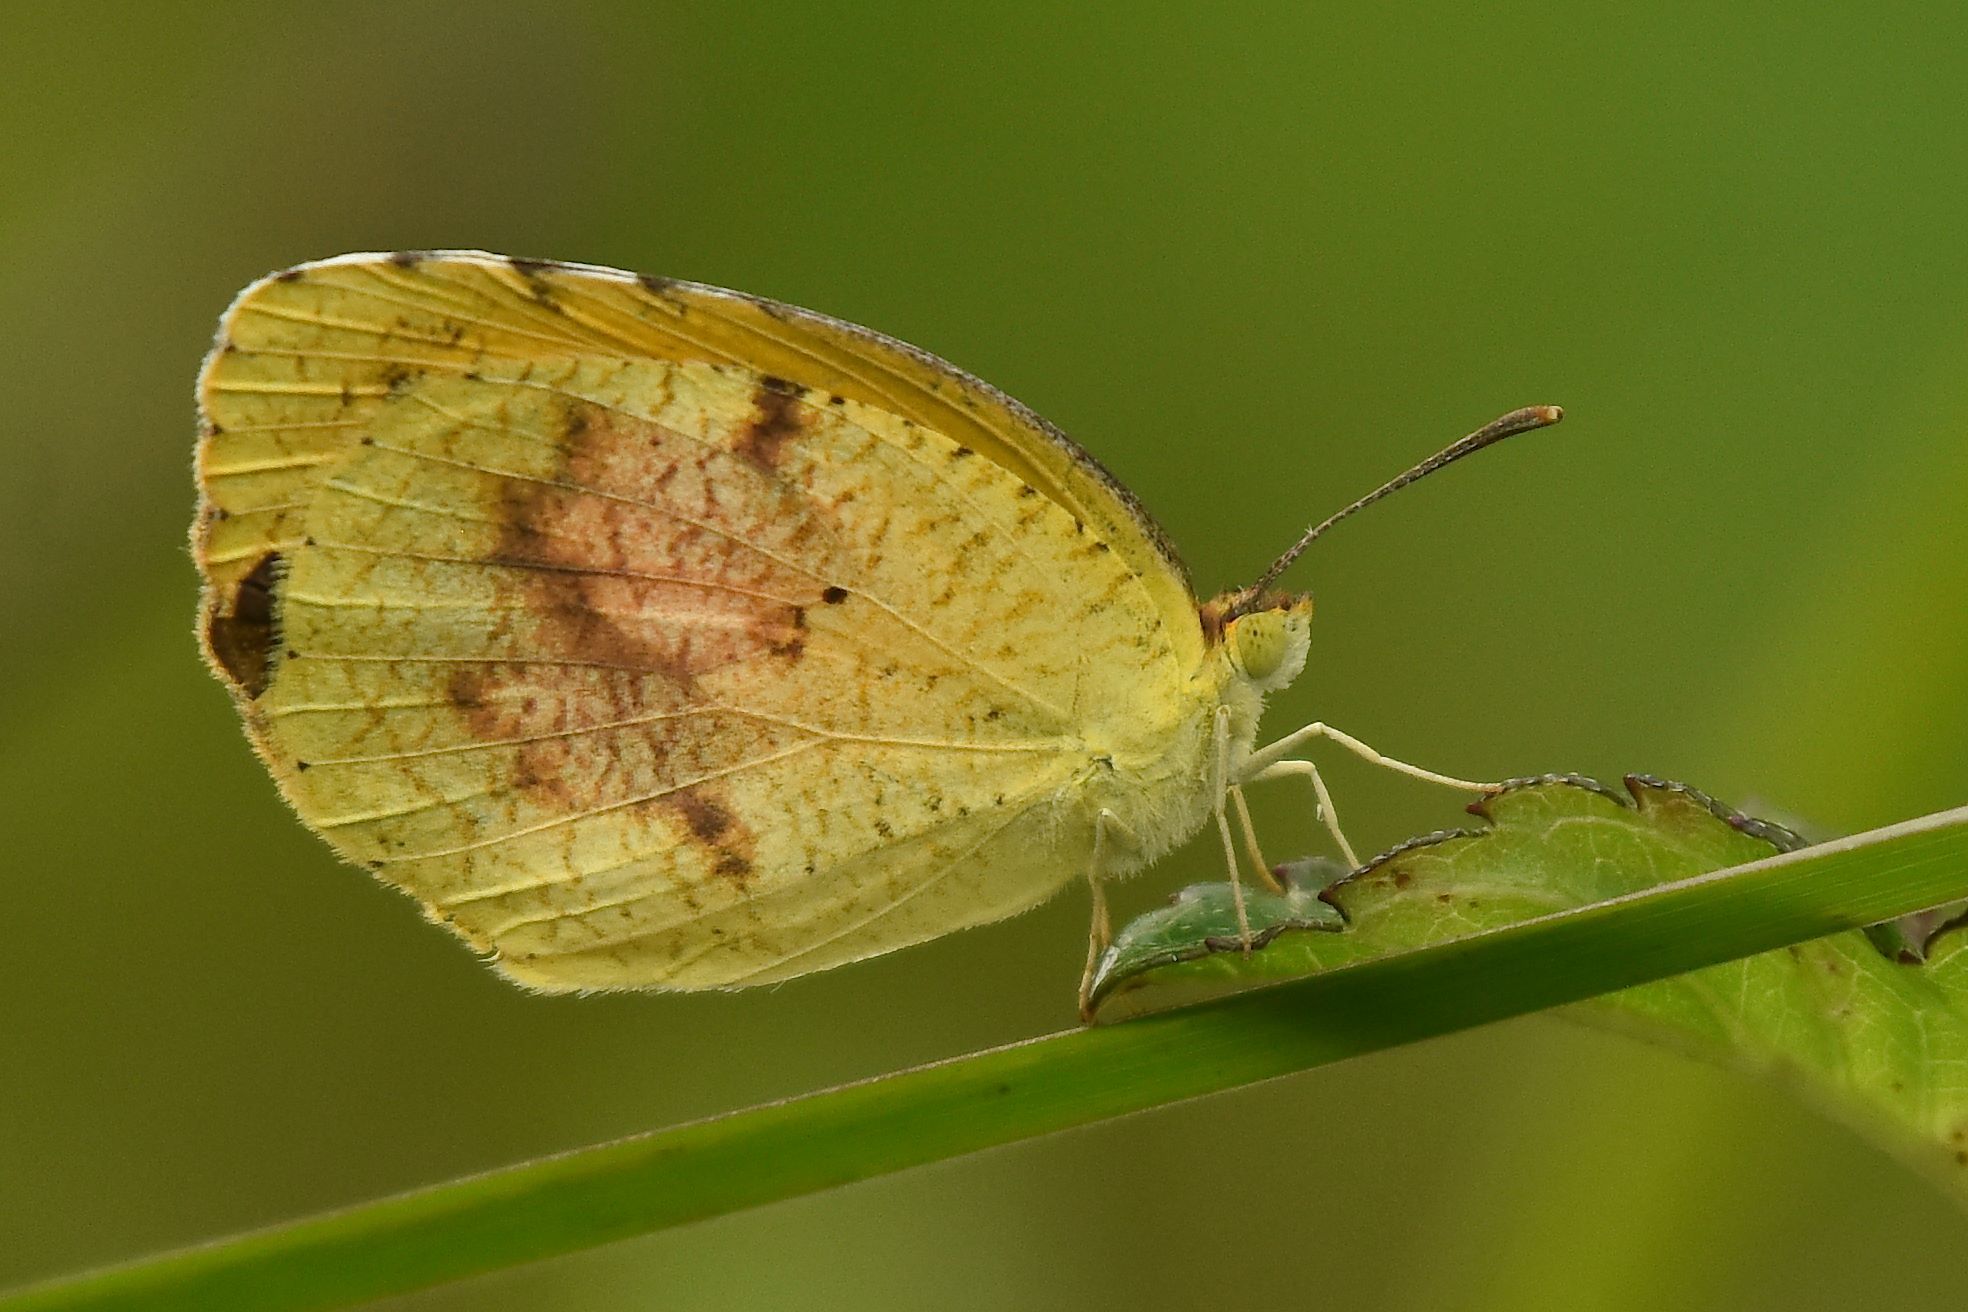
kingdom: Animalia
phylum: Arthropoda
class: Insecta
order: Lepidoptera
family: Pieridae
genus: Abaeis
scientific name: Abaeis nicippe
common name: Sleepy orange
